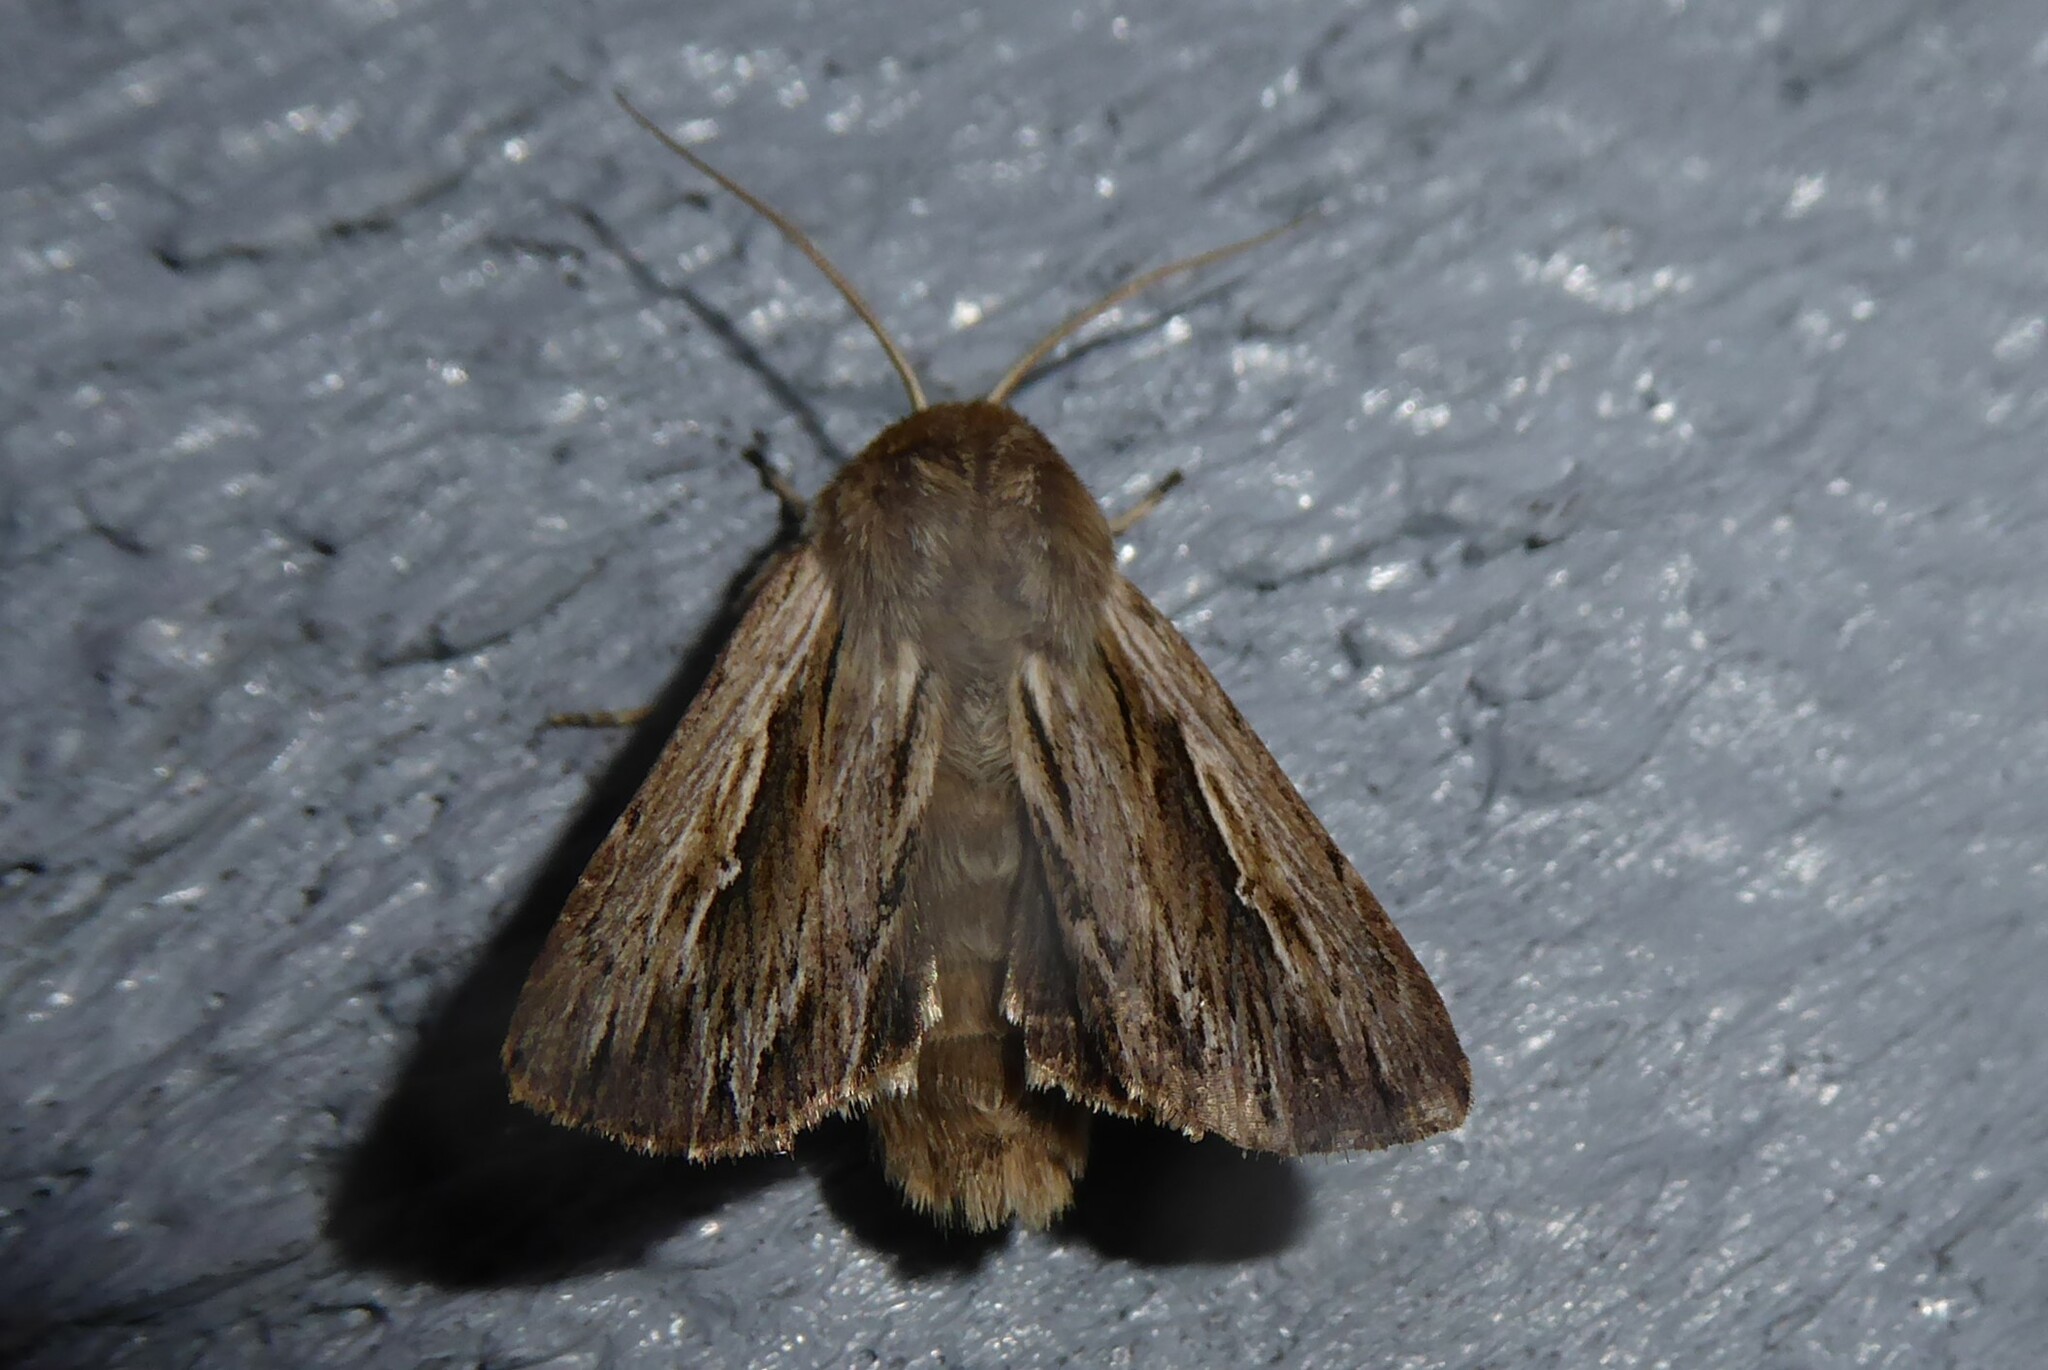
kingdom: Animalia
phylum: Arthropoda
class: Insecta
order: Lepidoptera
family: Noctuidae
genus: Persectania
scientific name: Persectania aversa
